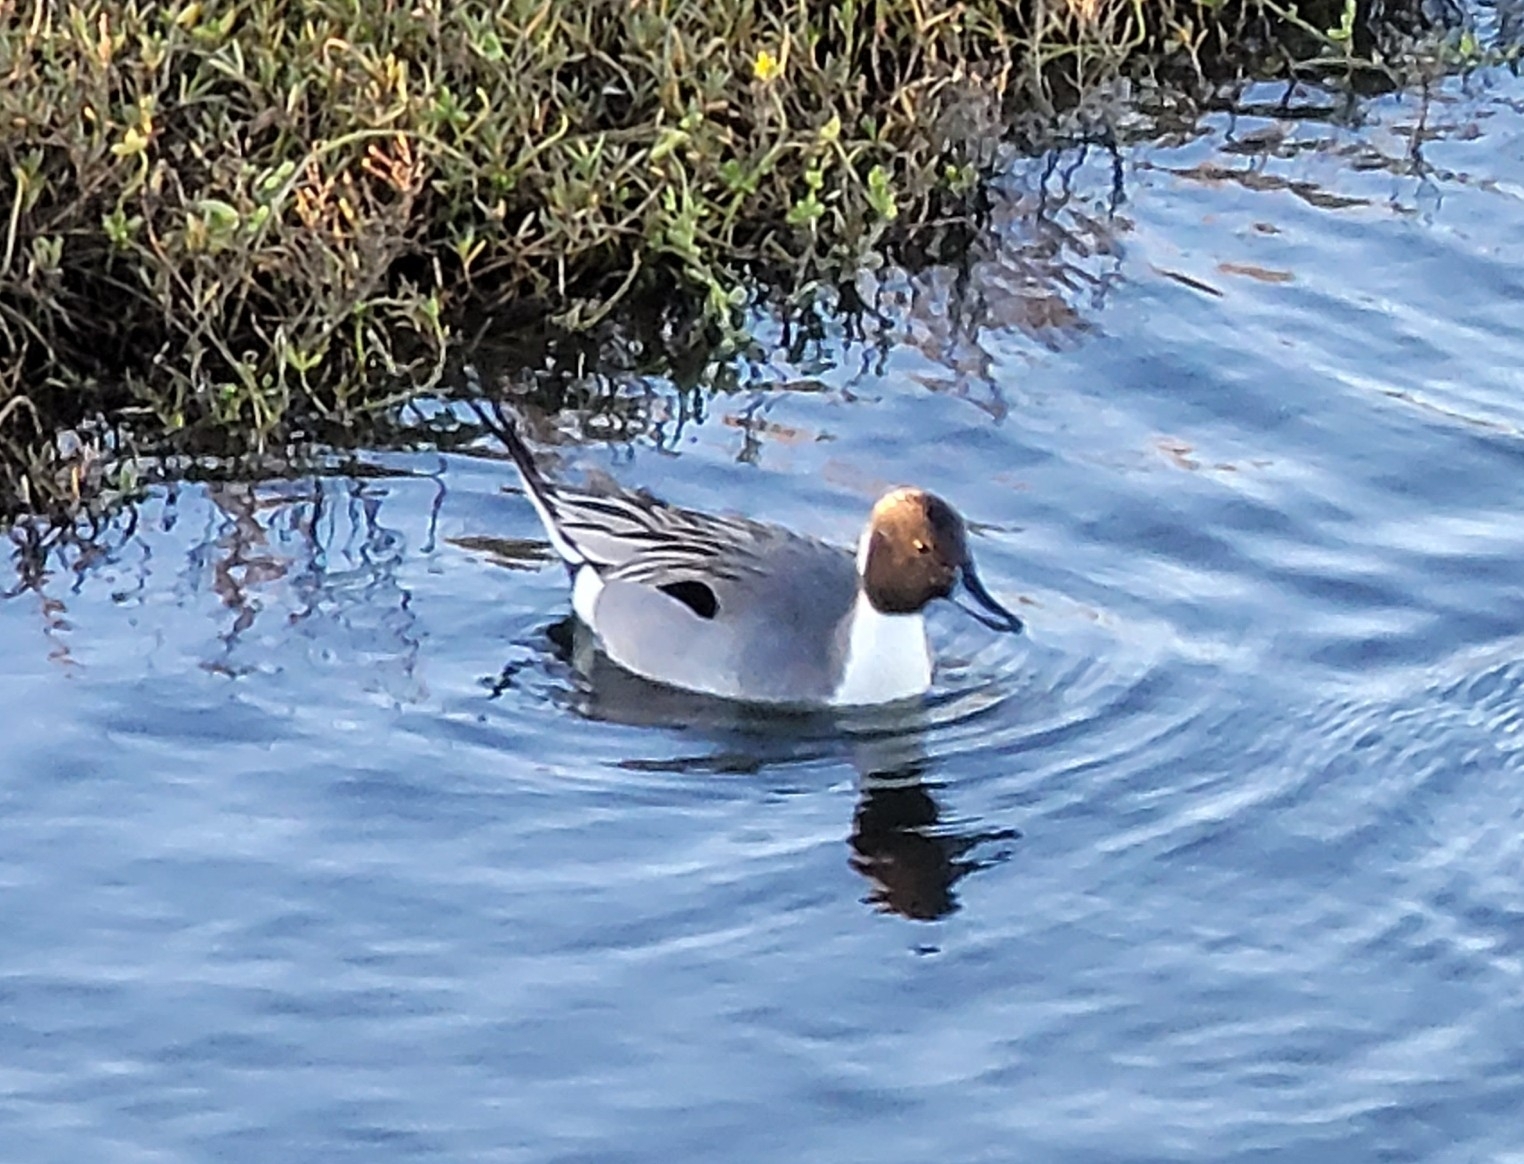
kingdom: Animalia
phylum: Chordata
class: Aves
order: Anseriformes
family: Anatidae
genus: Anas
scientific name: Anas acuta
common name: Northern pintail
